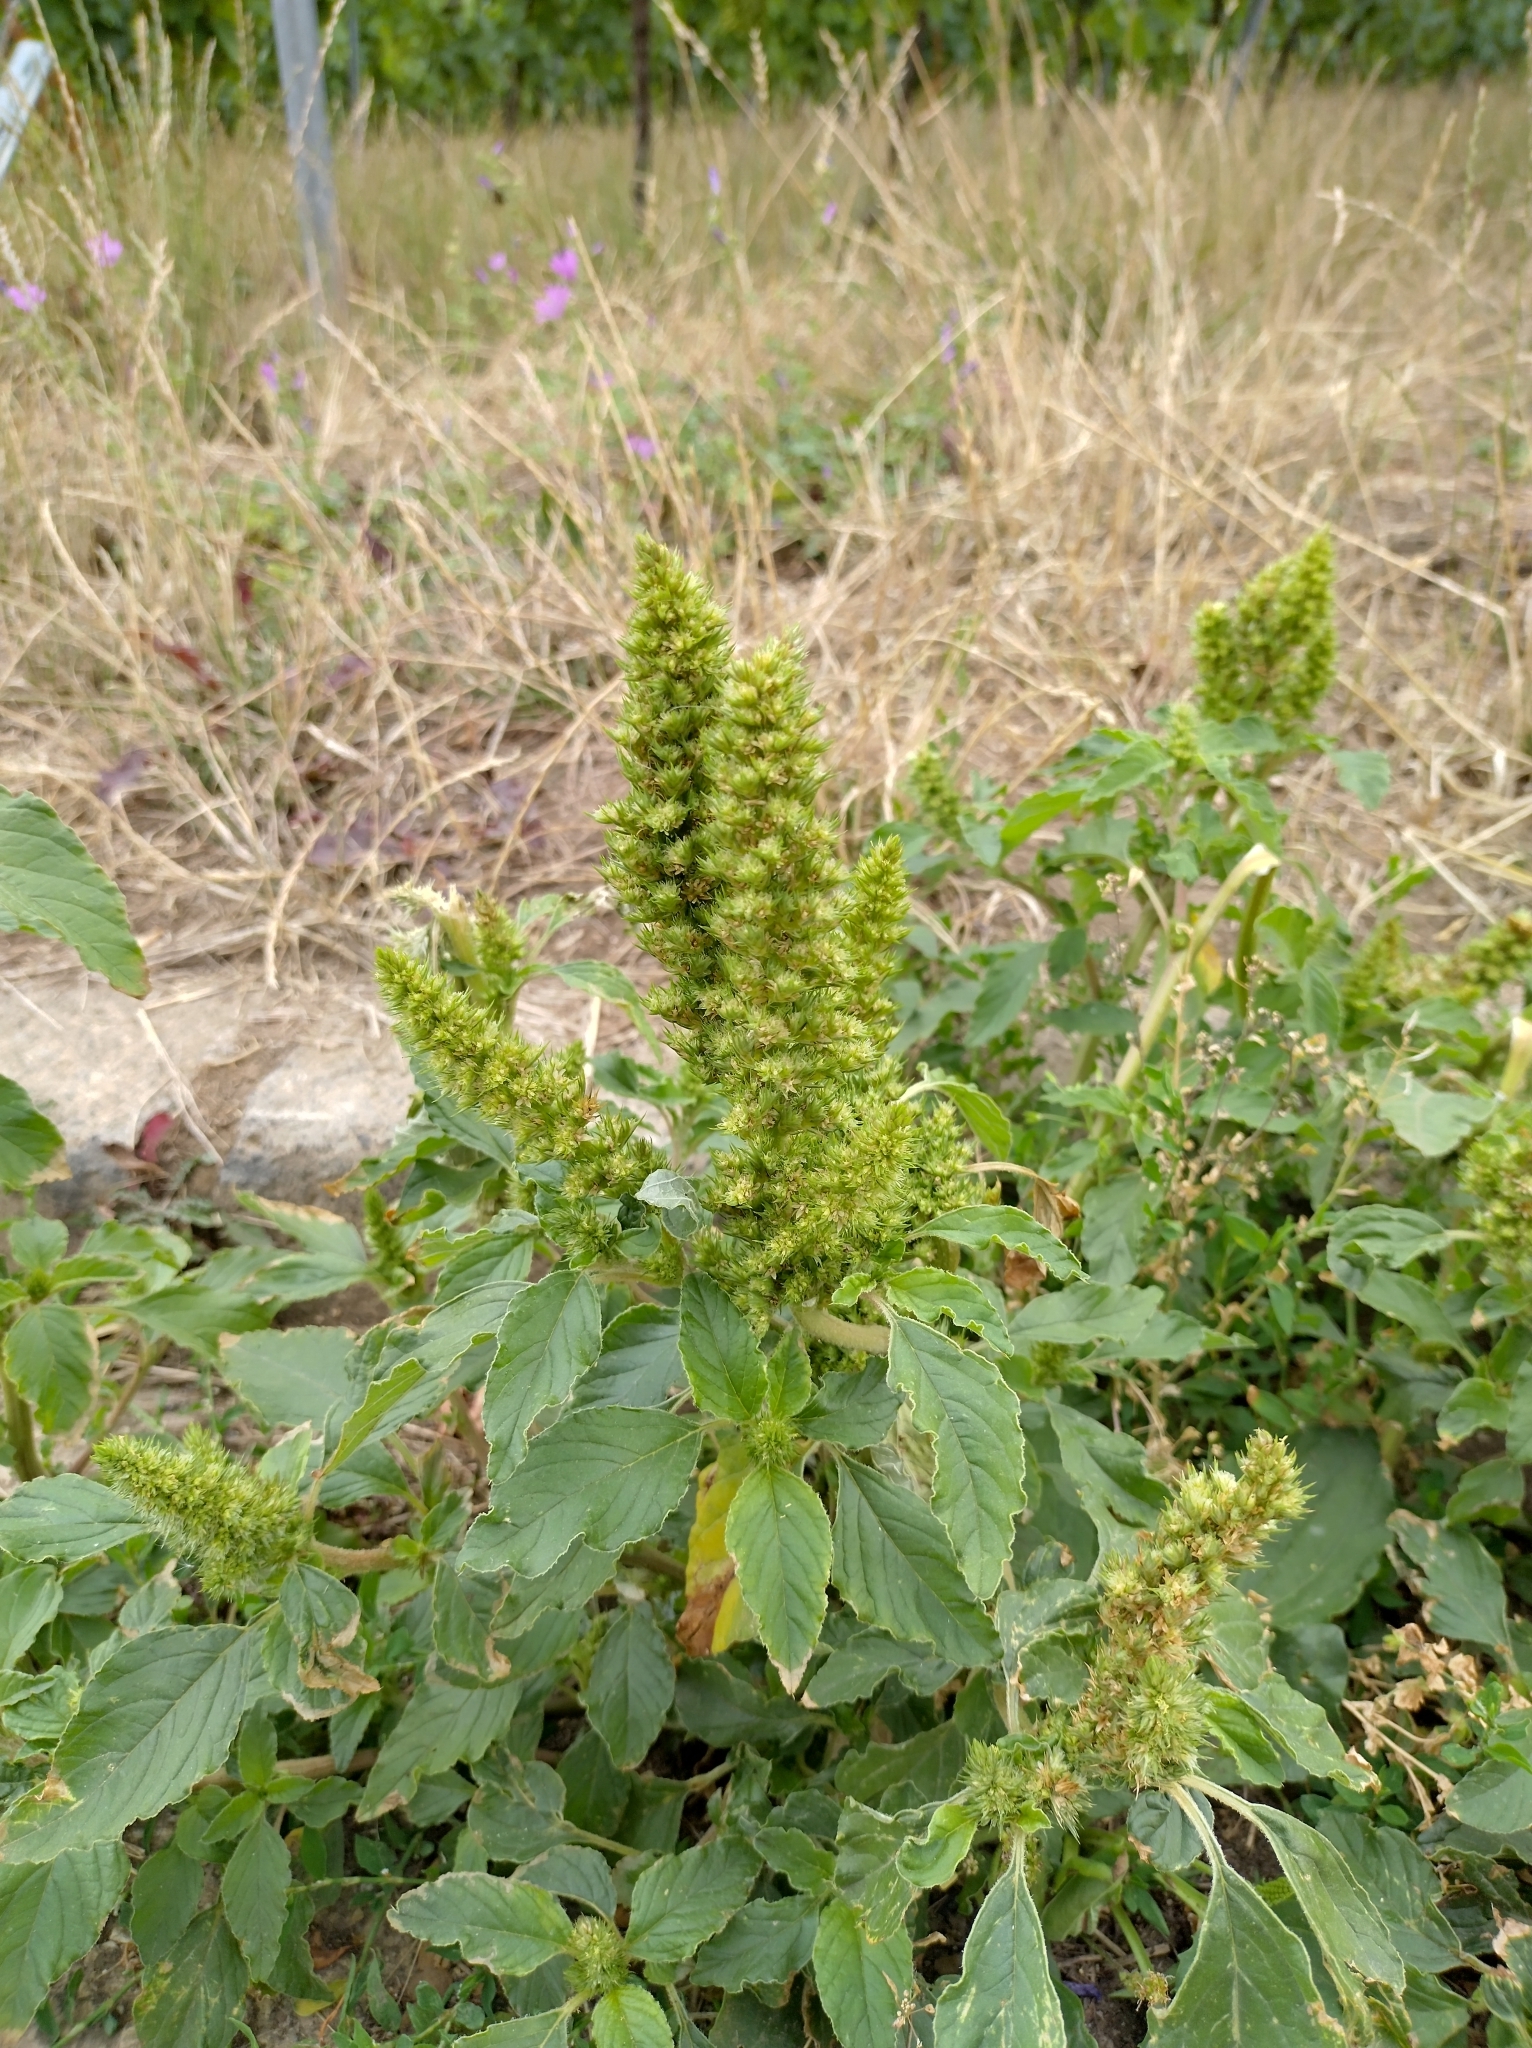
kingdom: Plantae
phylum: Tracheophyta
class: Magnoliopsida
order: Caryophyllales
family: Amaranthaceae
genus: Amaranthus
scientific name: Amaranthus retroflexus
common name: Redroot amaranth
